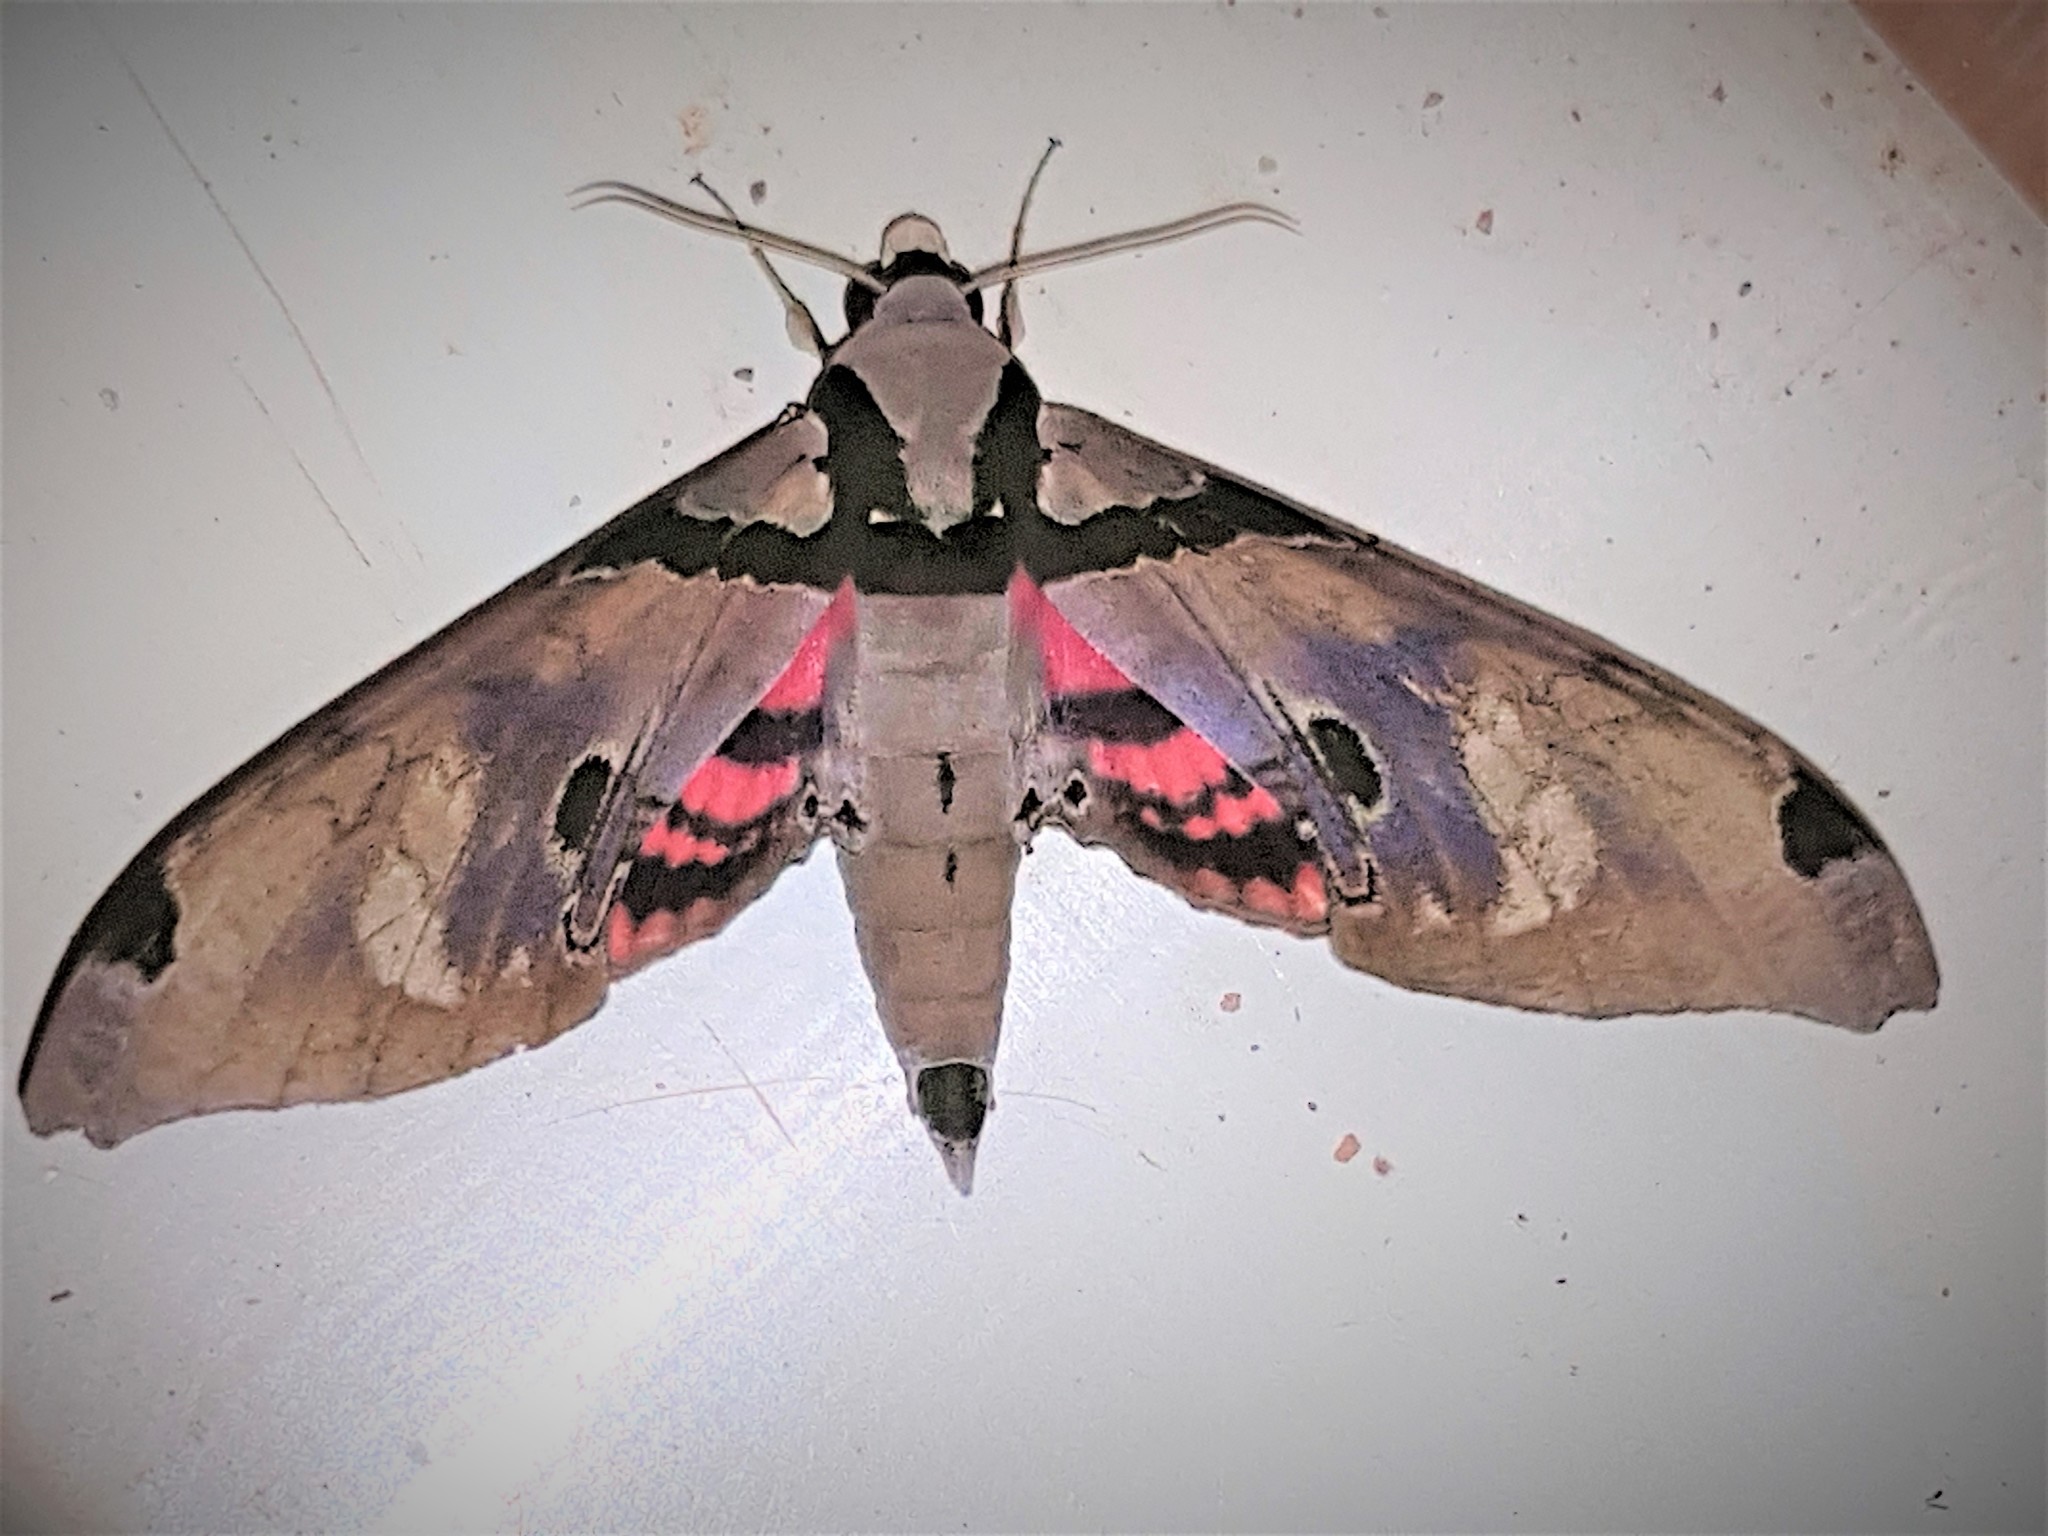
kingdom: Animalia
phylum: Arthropoda
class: Insecta
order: Lepidoptera
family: Sphingidae
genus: Adhemarius
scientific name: Adhemarius gagarini
